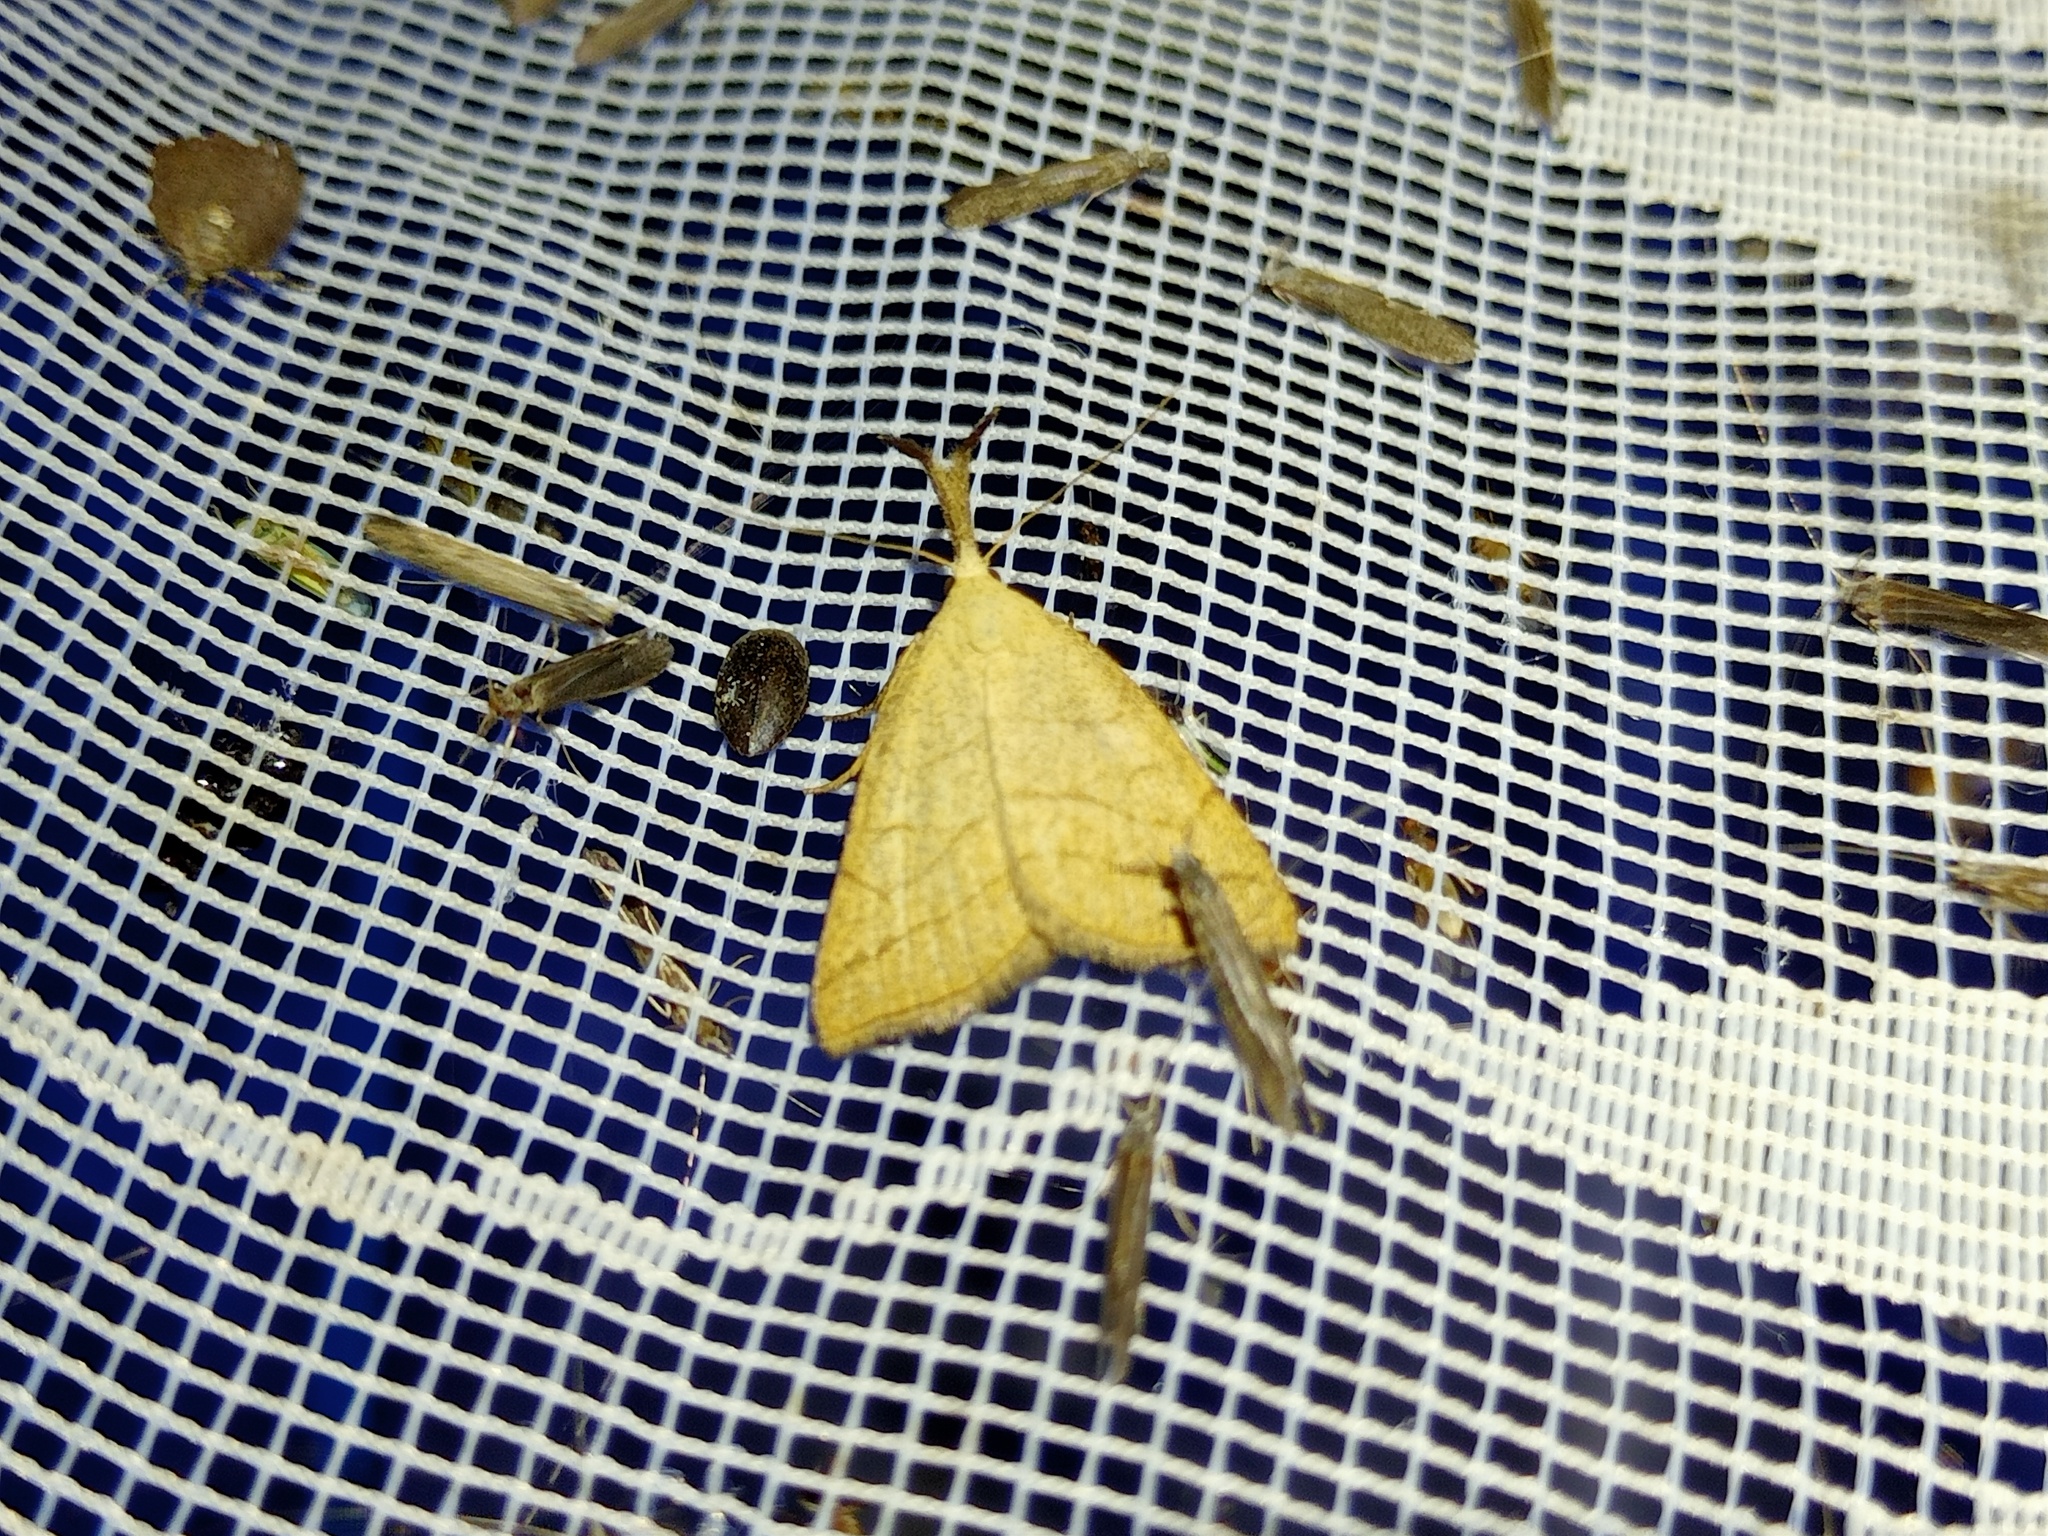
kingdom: Animalia
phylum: Arthropoda
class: Insecta
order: Lepidoptera
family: Erebidae
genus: Polypogon
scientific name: Polypogon tentacularia
